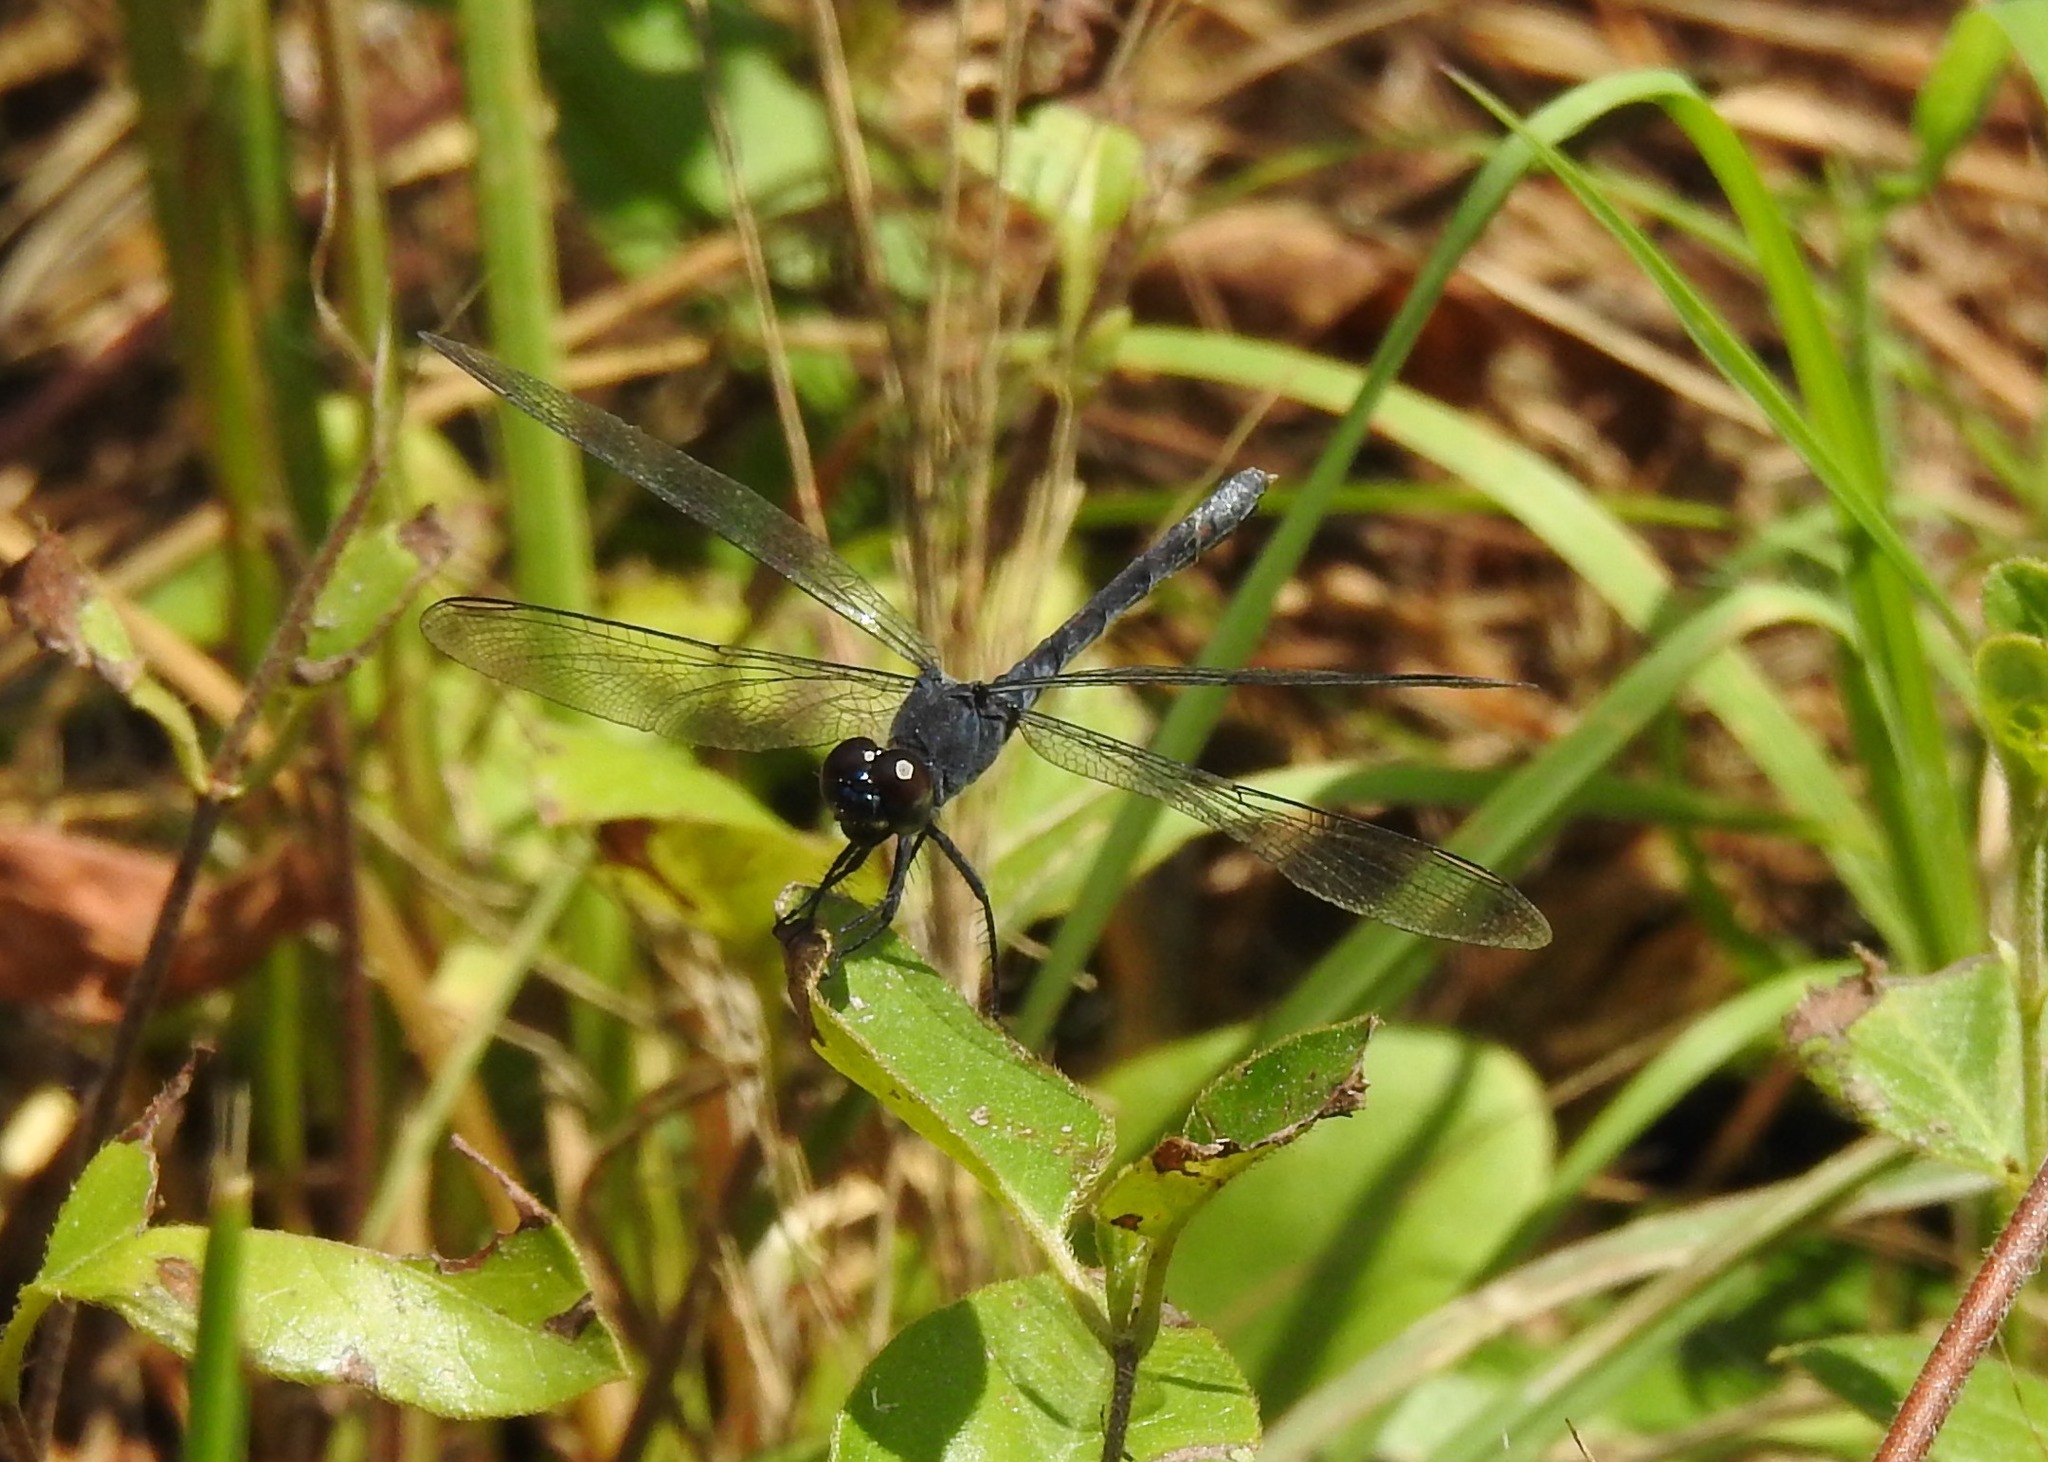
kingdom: Animalia
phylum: Arthropoda
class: Insecta
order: Odonata
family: Libellulidae
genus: Erythrodiplax
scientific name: Erythrodiplax berenice
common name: Seaside dragonlet
